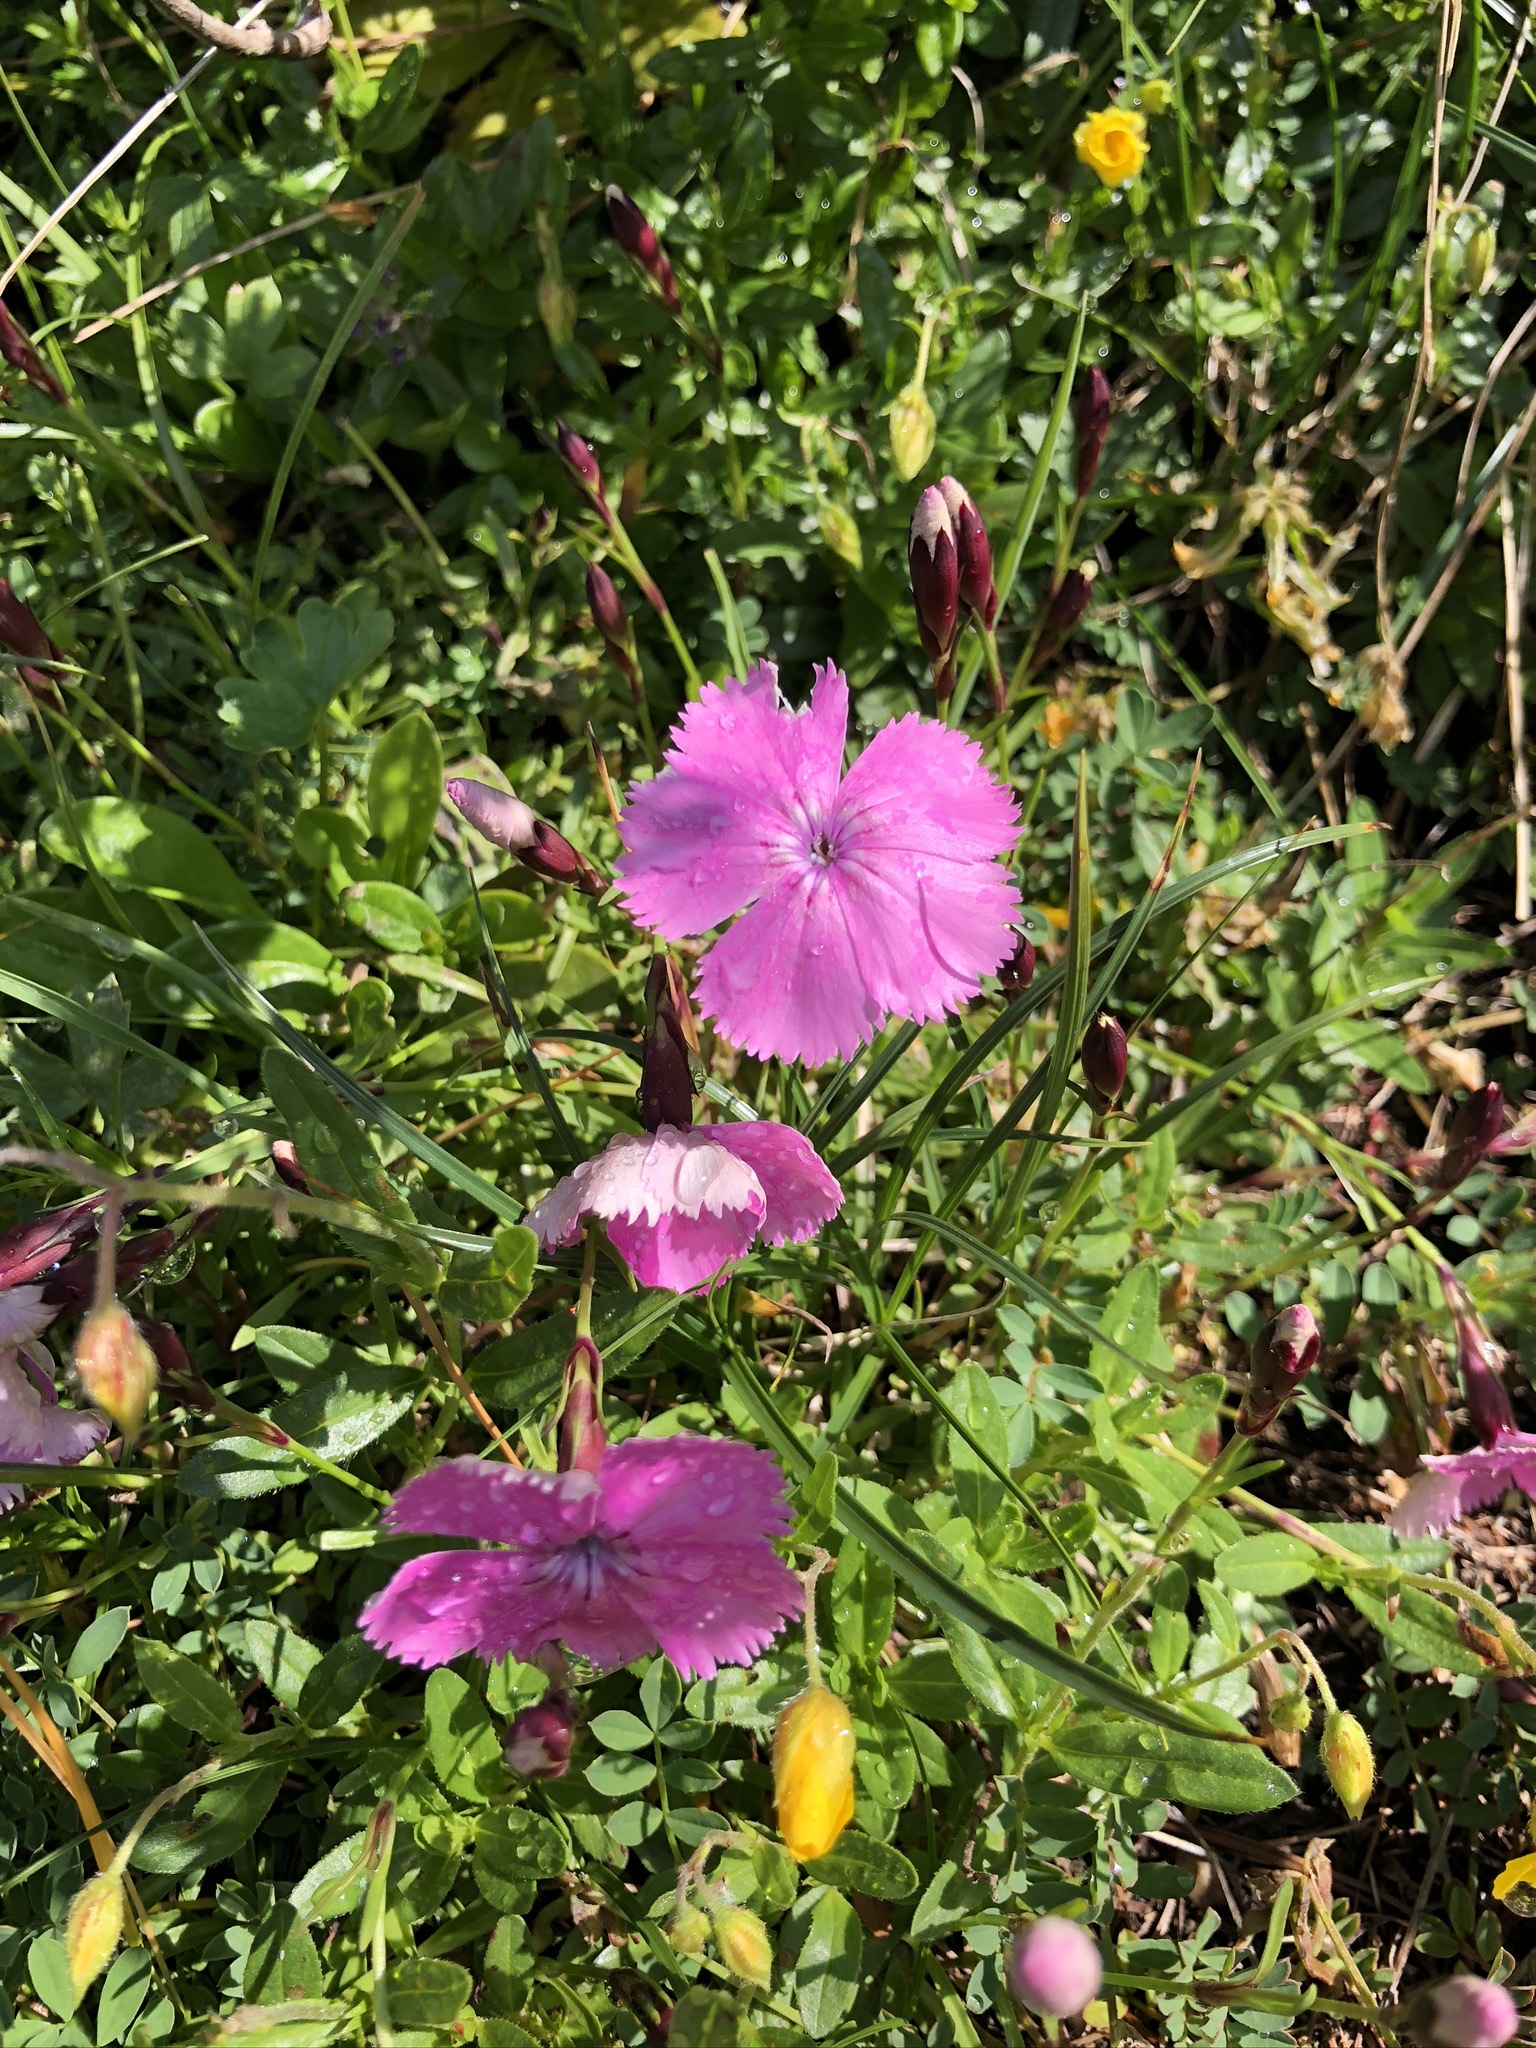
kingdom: Plantae
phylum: Tracheophyta
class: Magnoliopsida
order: Caryophyllales
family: Caryophyllaceae
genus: Dianthus
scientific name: Dianthus alpinus
